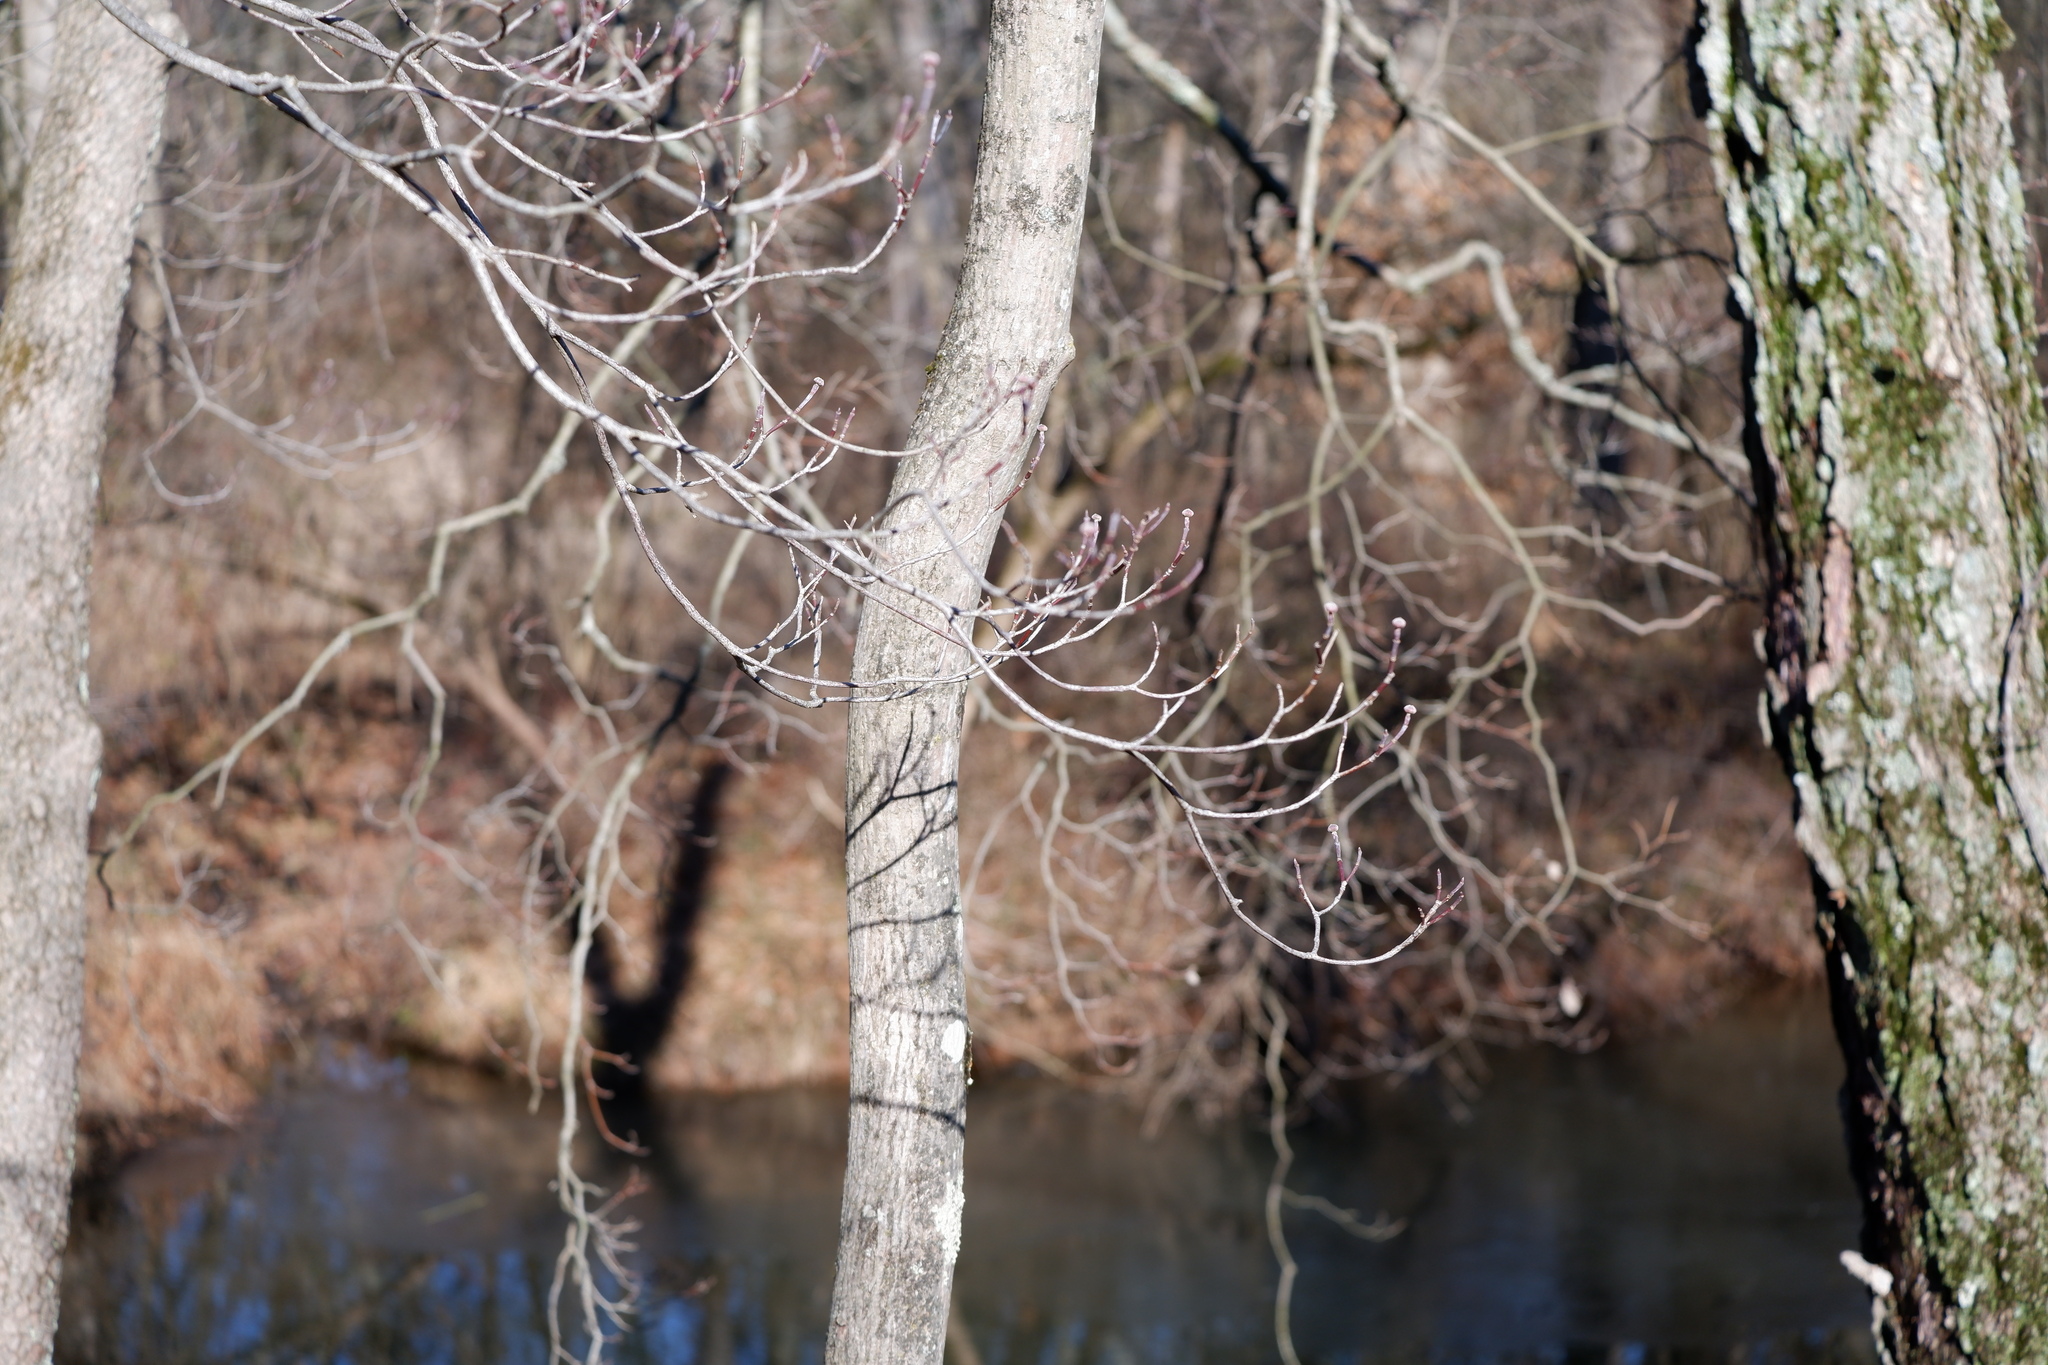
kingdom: Plantae
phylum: Tracheophyta
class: Magnoliopsida
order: Cornales
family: Cornaceae
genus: Cornus
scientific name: Cornus florida
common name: Flowering dogwood
